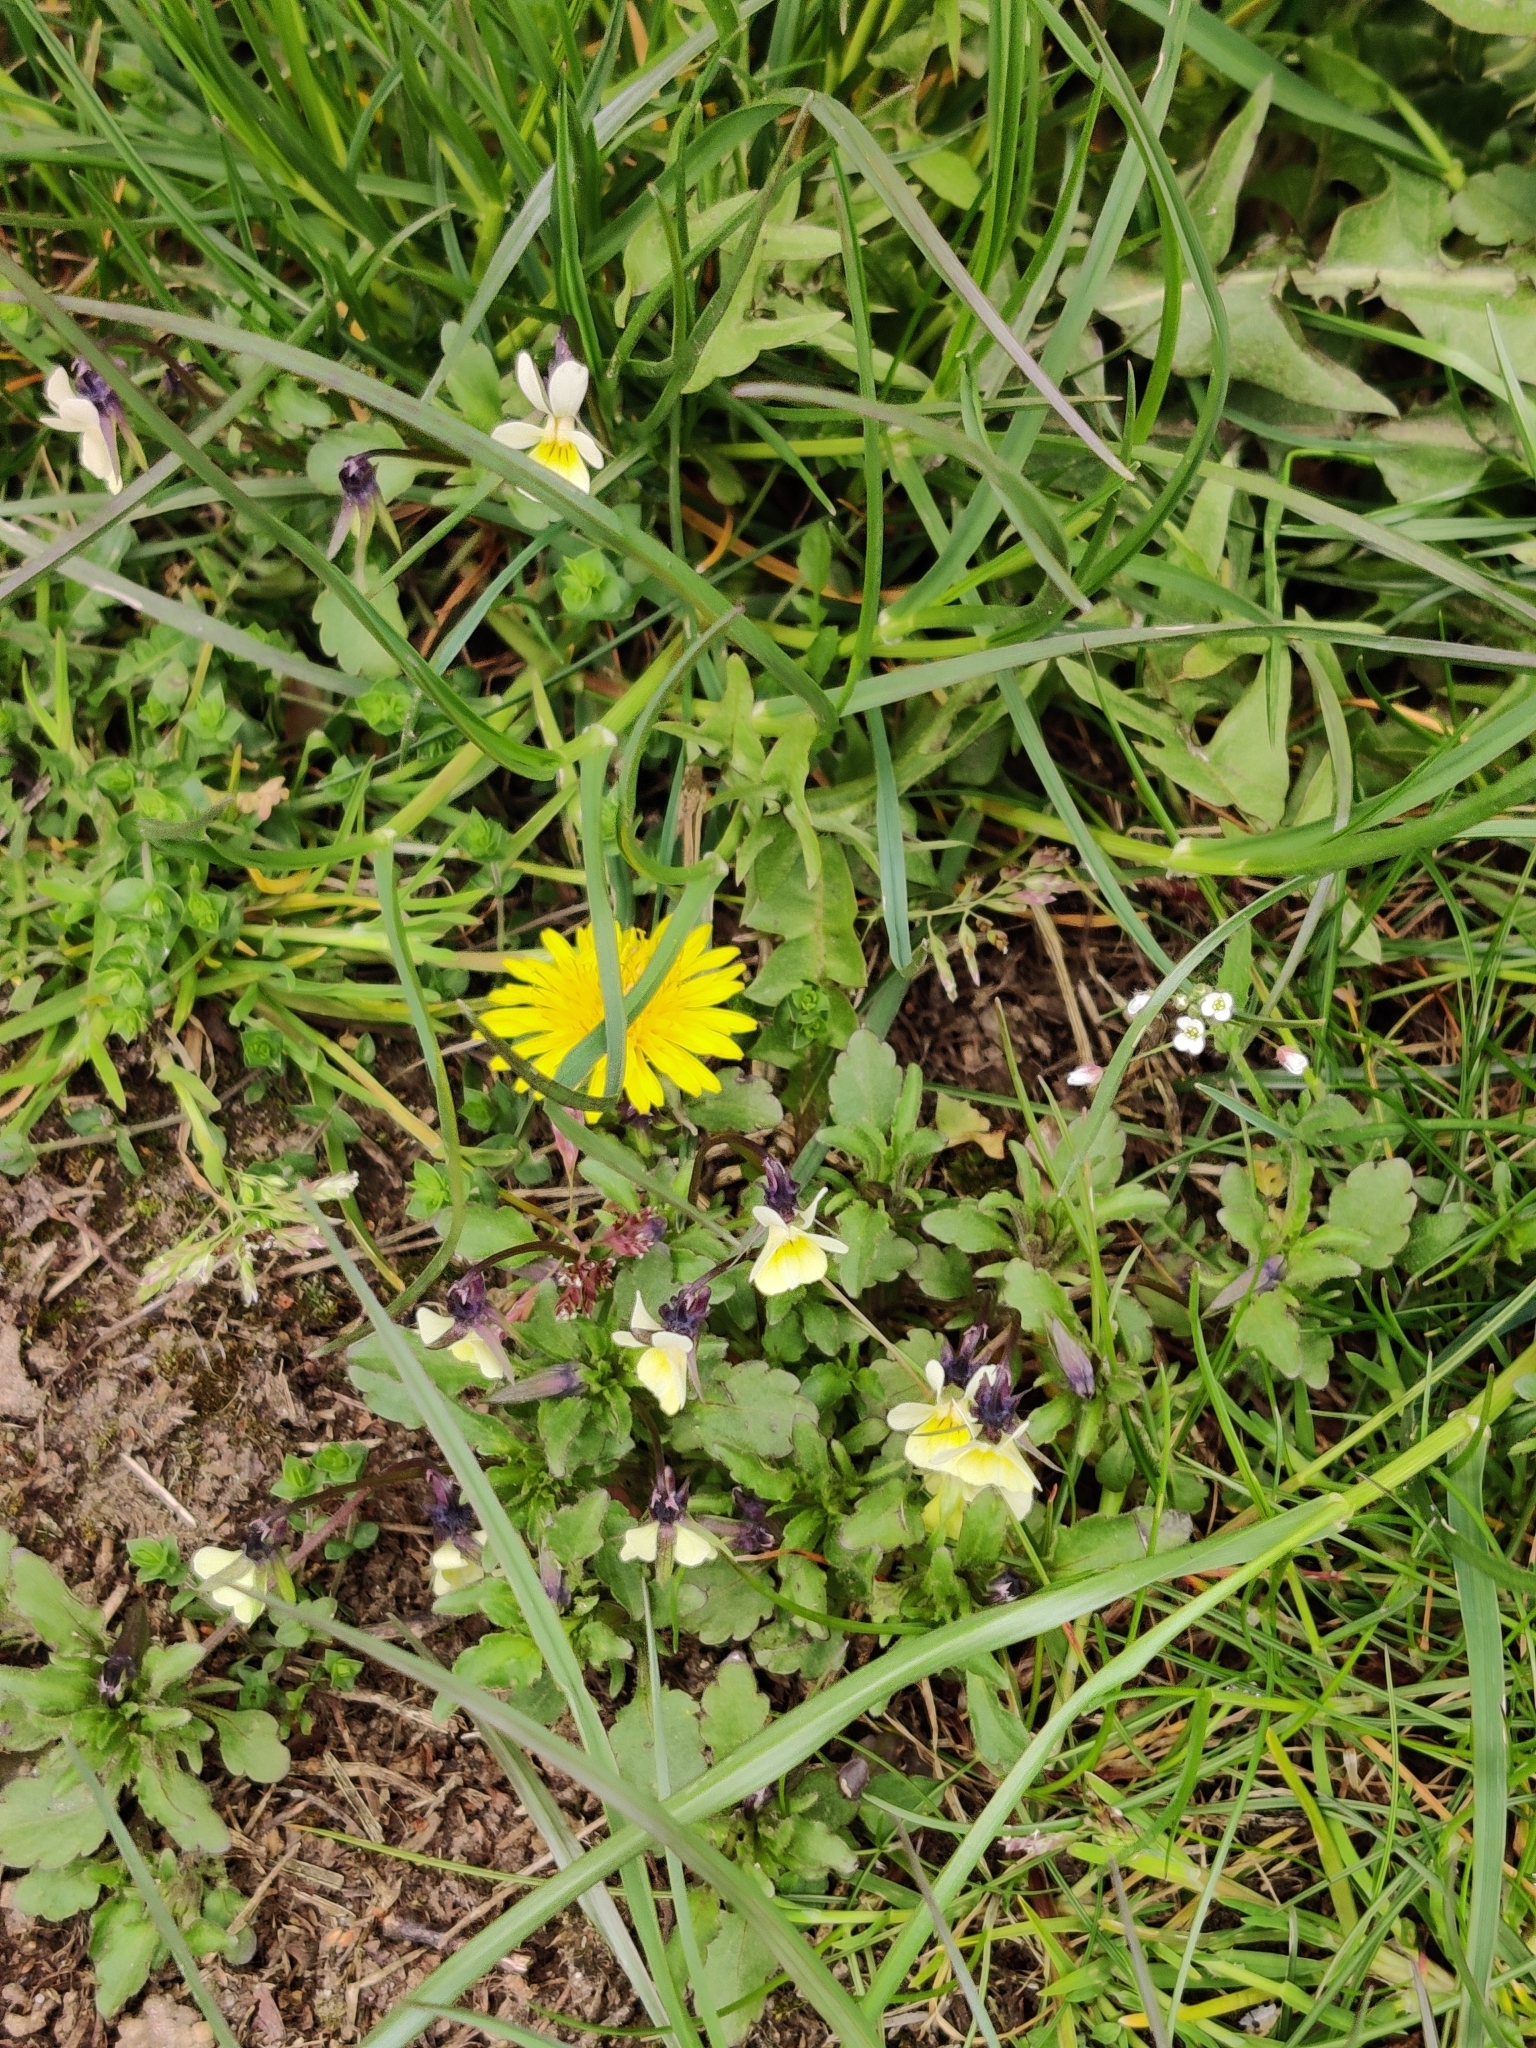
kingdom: Plantae
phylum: Tracheophyta
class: Magnoliopsida
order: Malpighiales
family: Violaceae
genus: Viola
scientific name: Viola arvensis
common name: Field pansy
